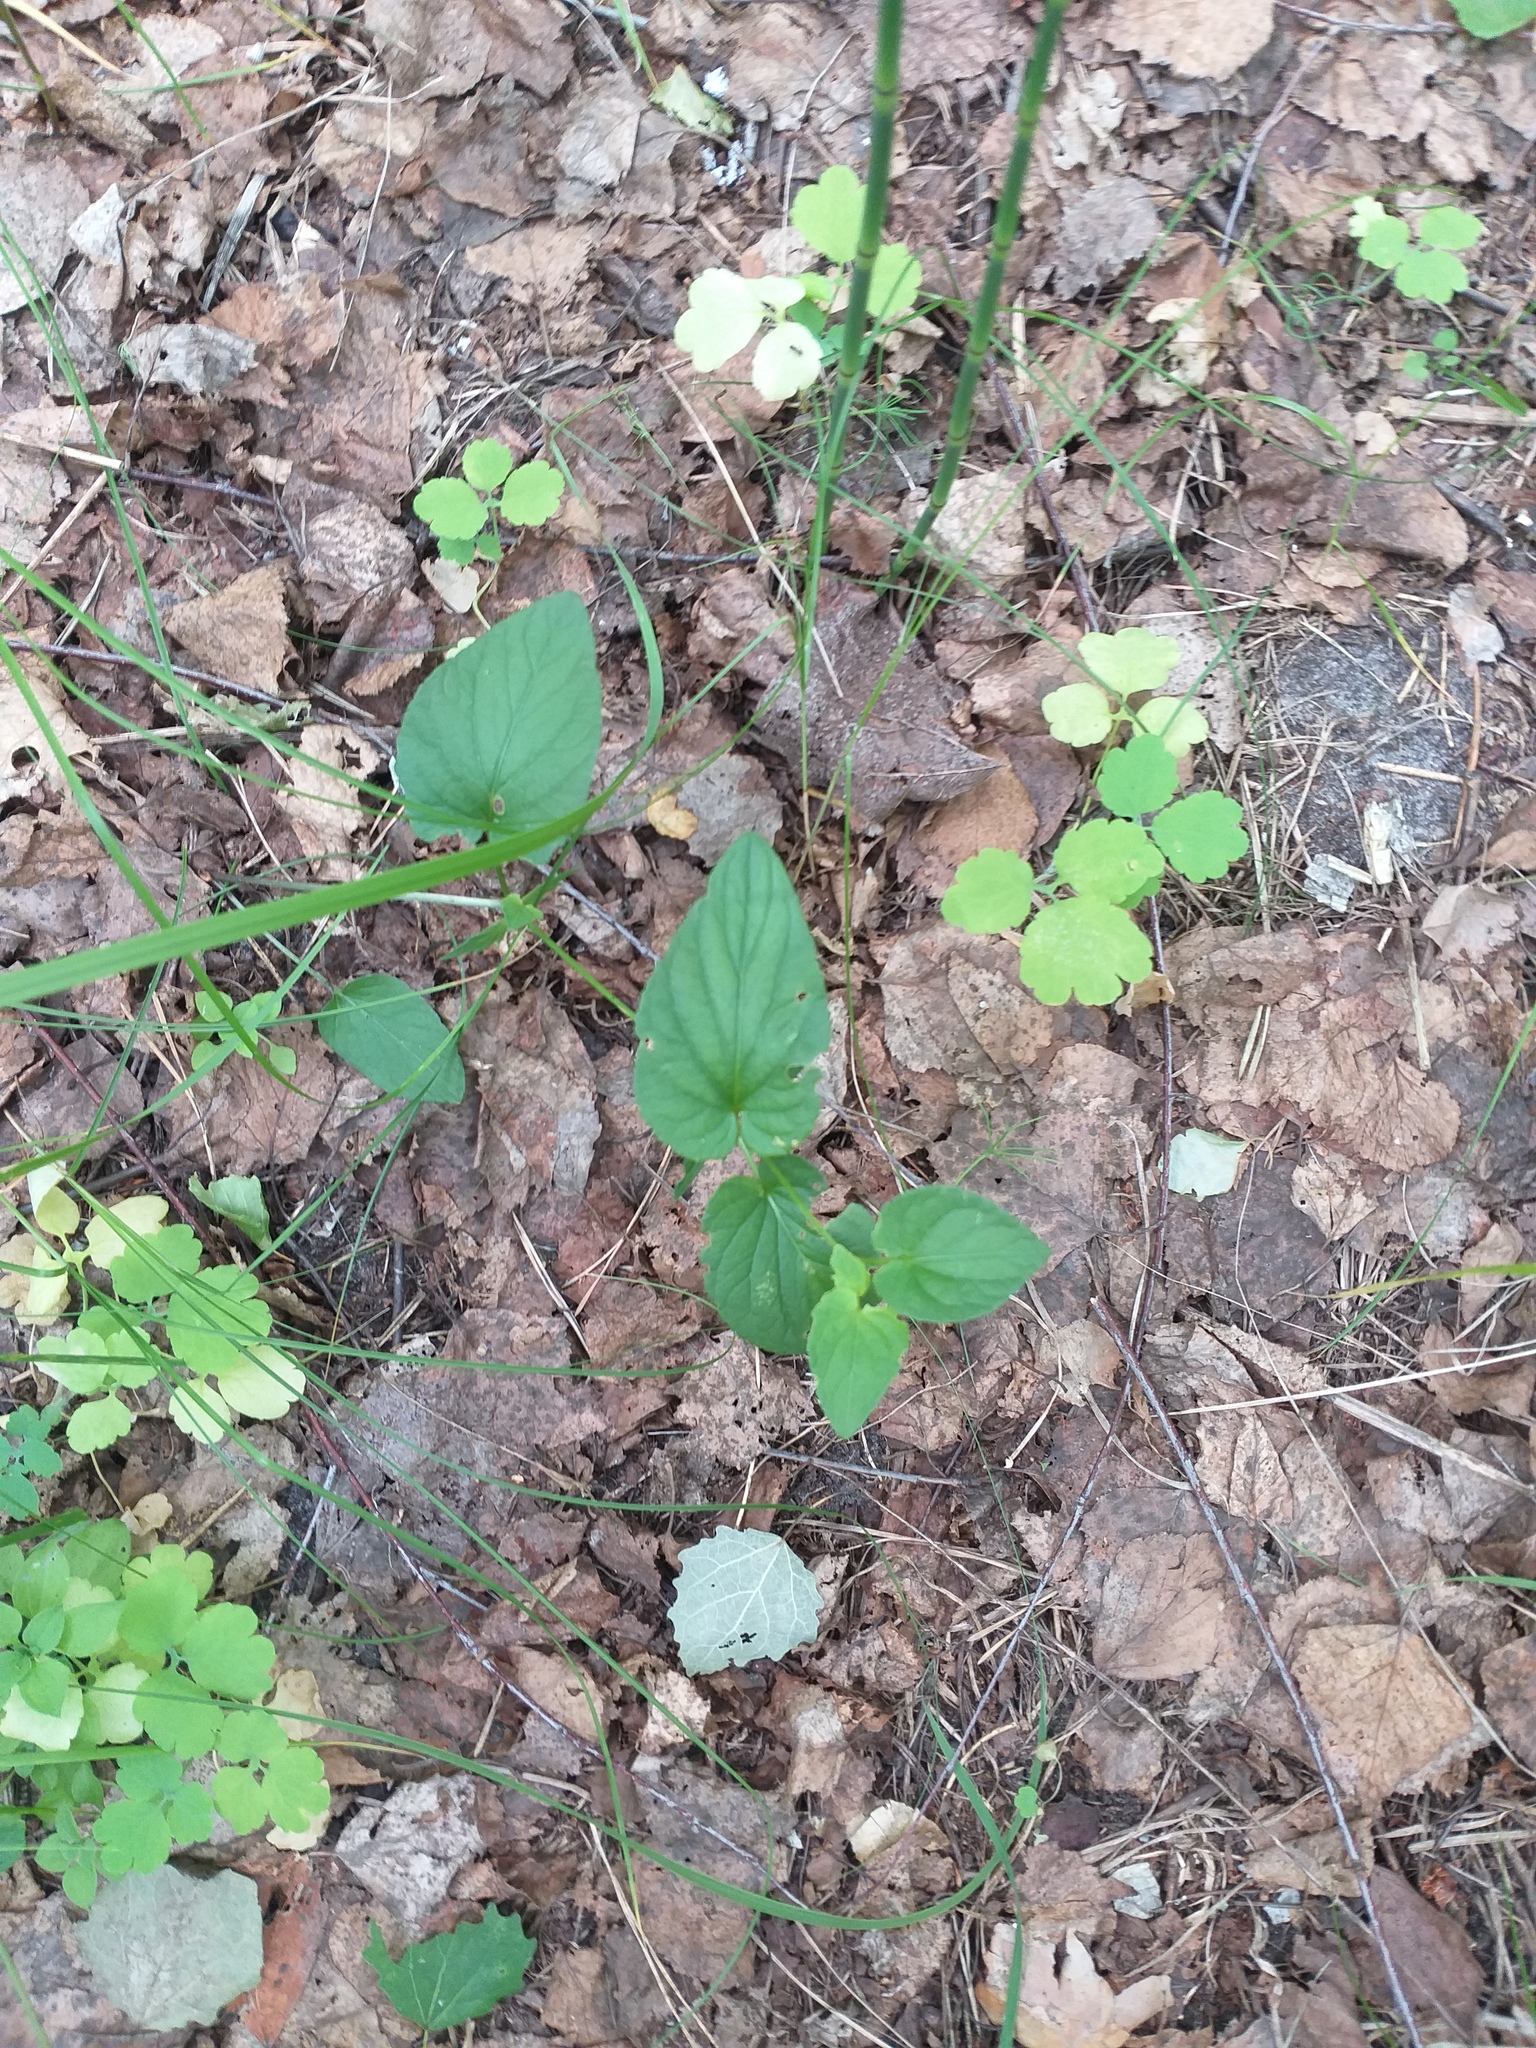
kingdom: Plantae
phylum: Tracheophyta
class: Magnoliopsida
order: Malpighiales
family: Violaceae
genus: Viola
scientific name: Viola
